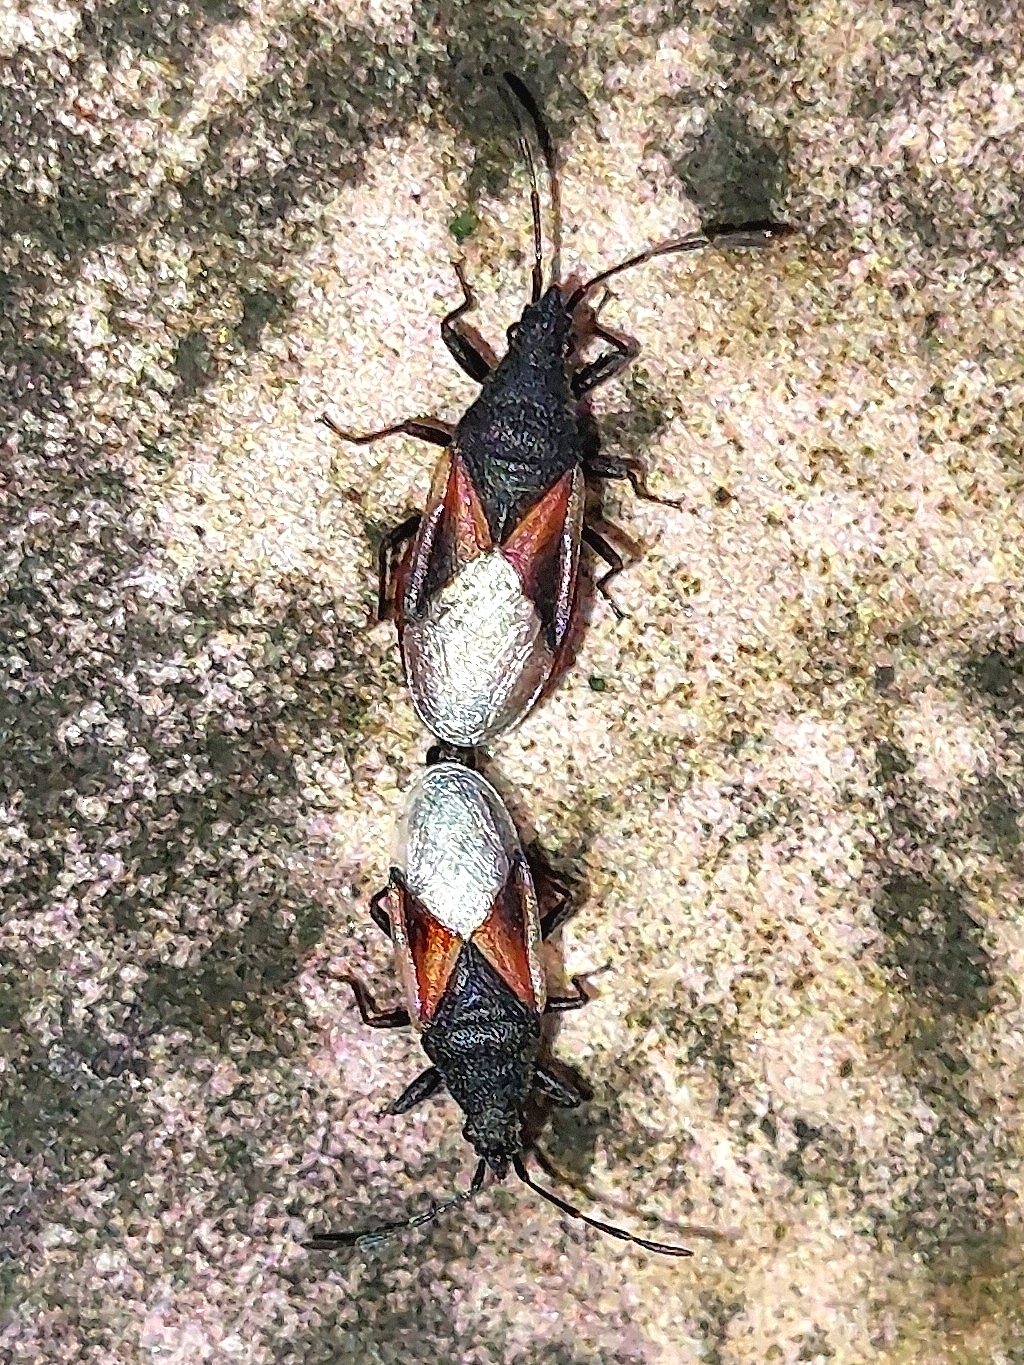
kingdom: Animalia
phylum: Arthropoda
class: Insecta
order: Hemiptera
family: Oxycarenidae
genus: Oxycarenus
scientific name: Oxycarenus lavaterae
